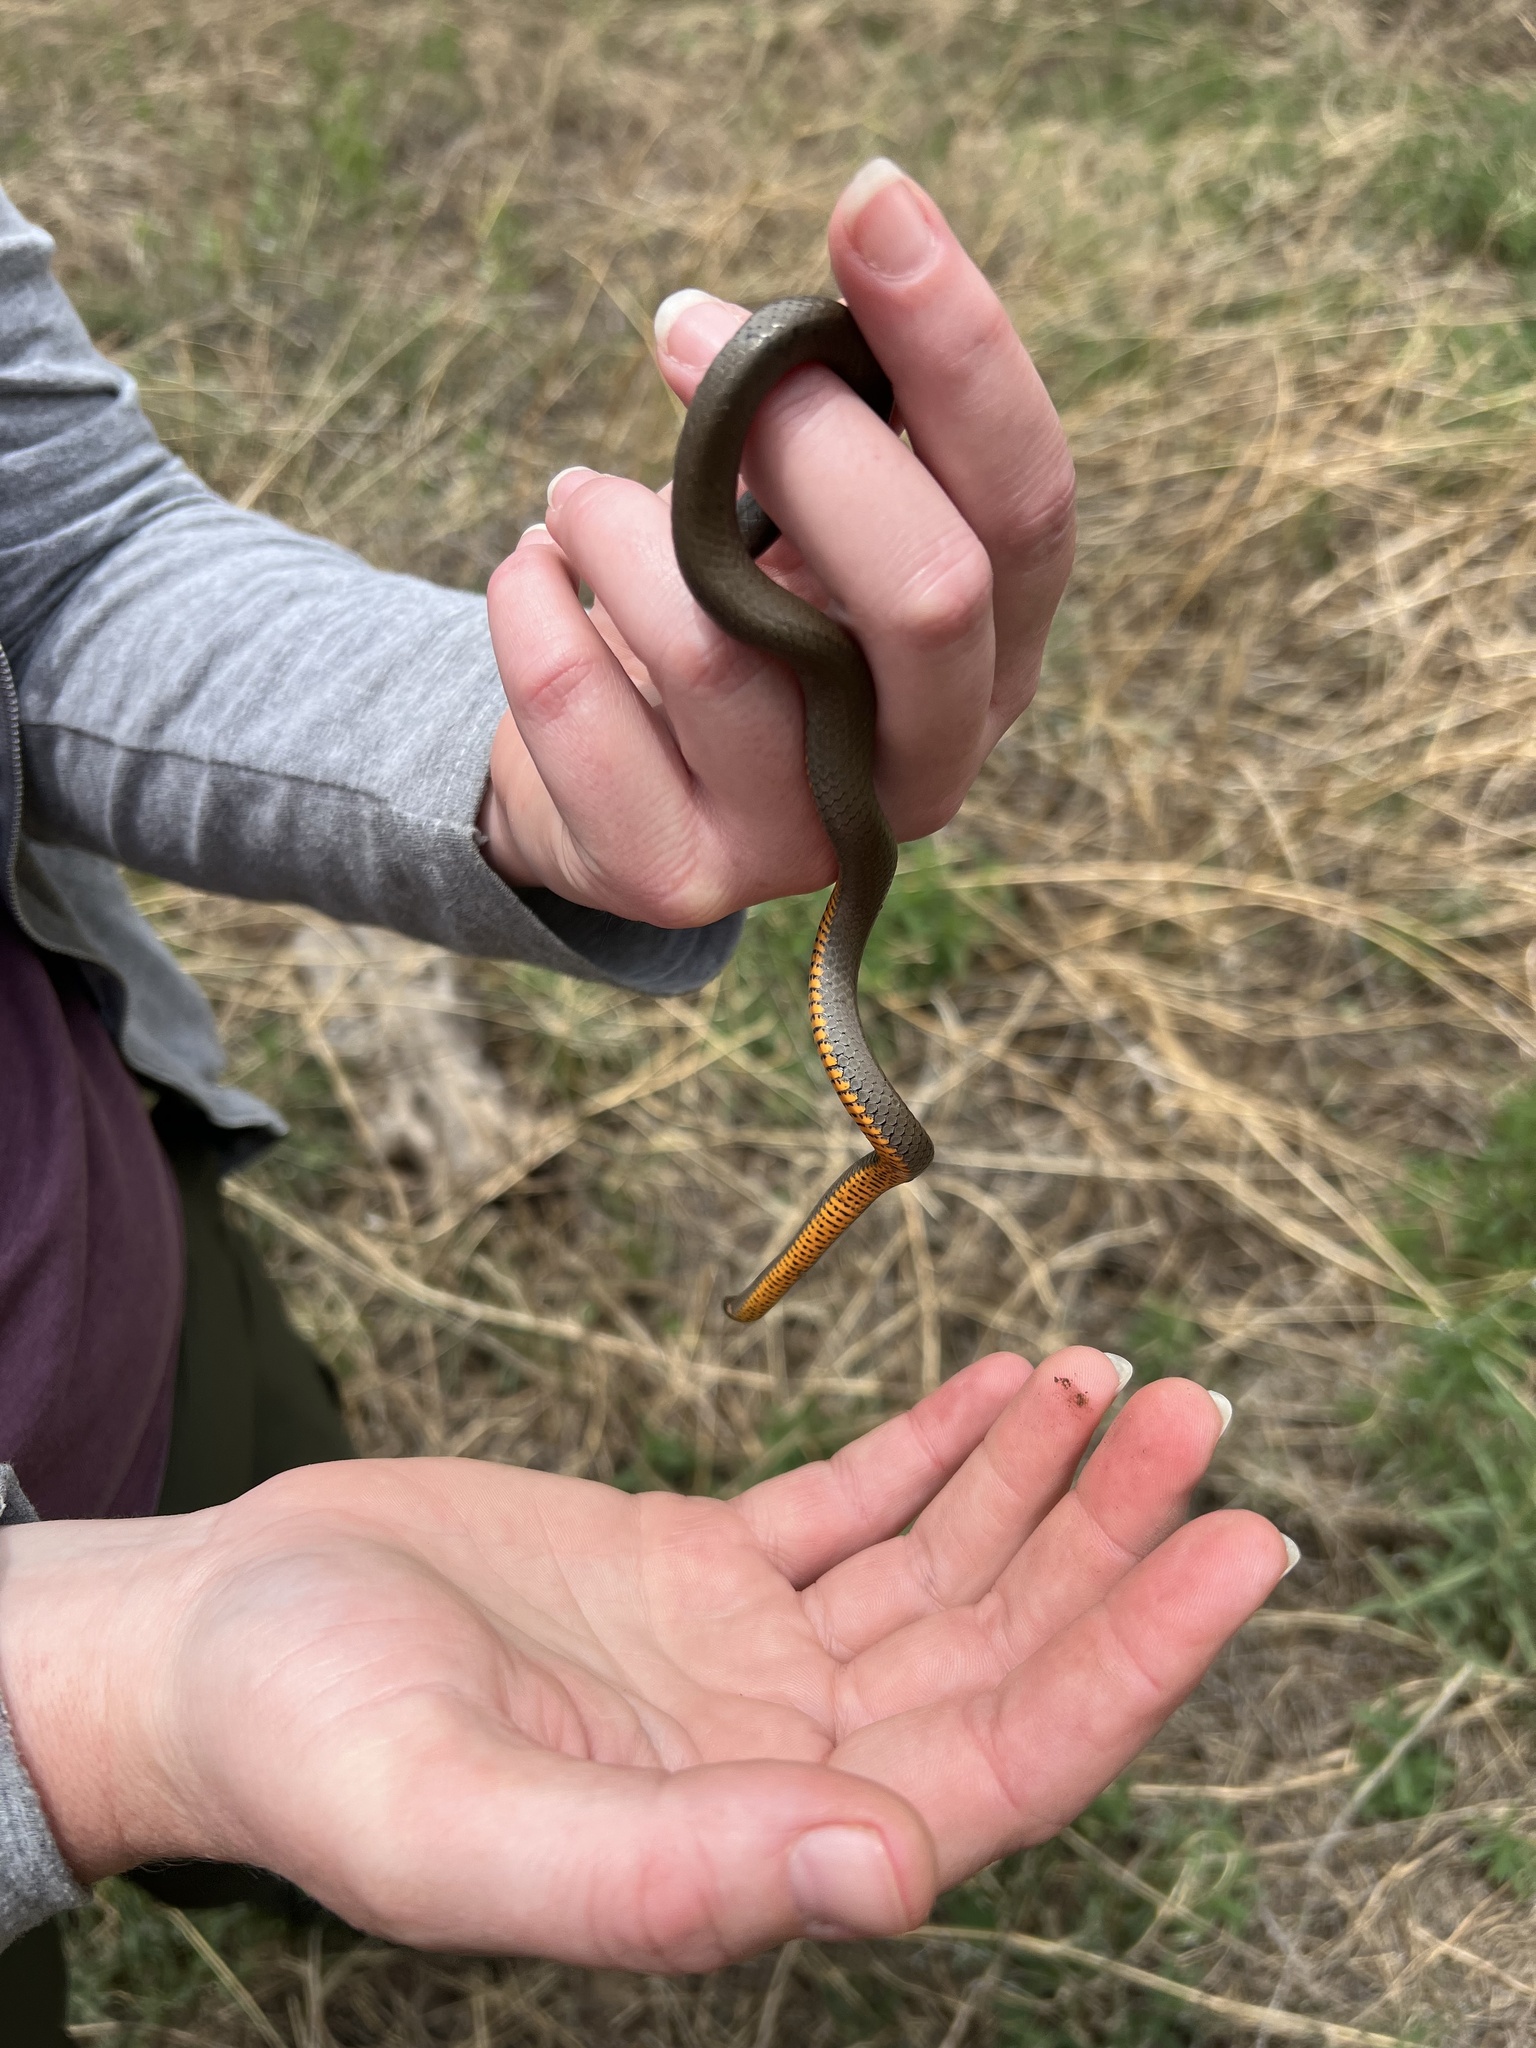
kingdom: Animalia
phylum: Chordata
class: Squamata
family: Colubridae
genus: Diadophis
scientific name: Diadophis punctatus
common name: Ringneck snake
